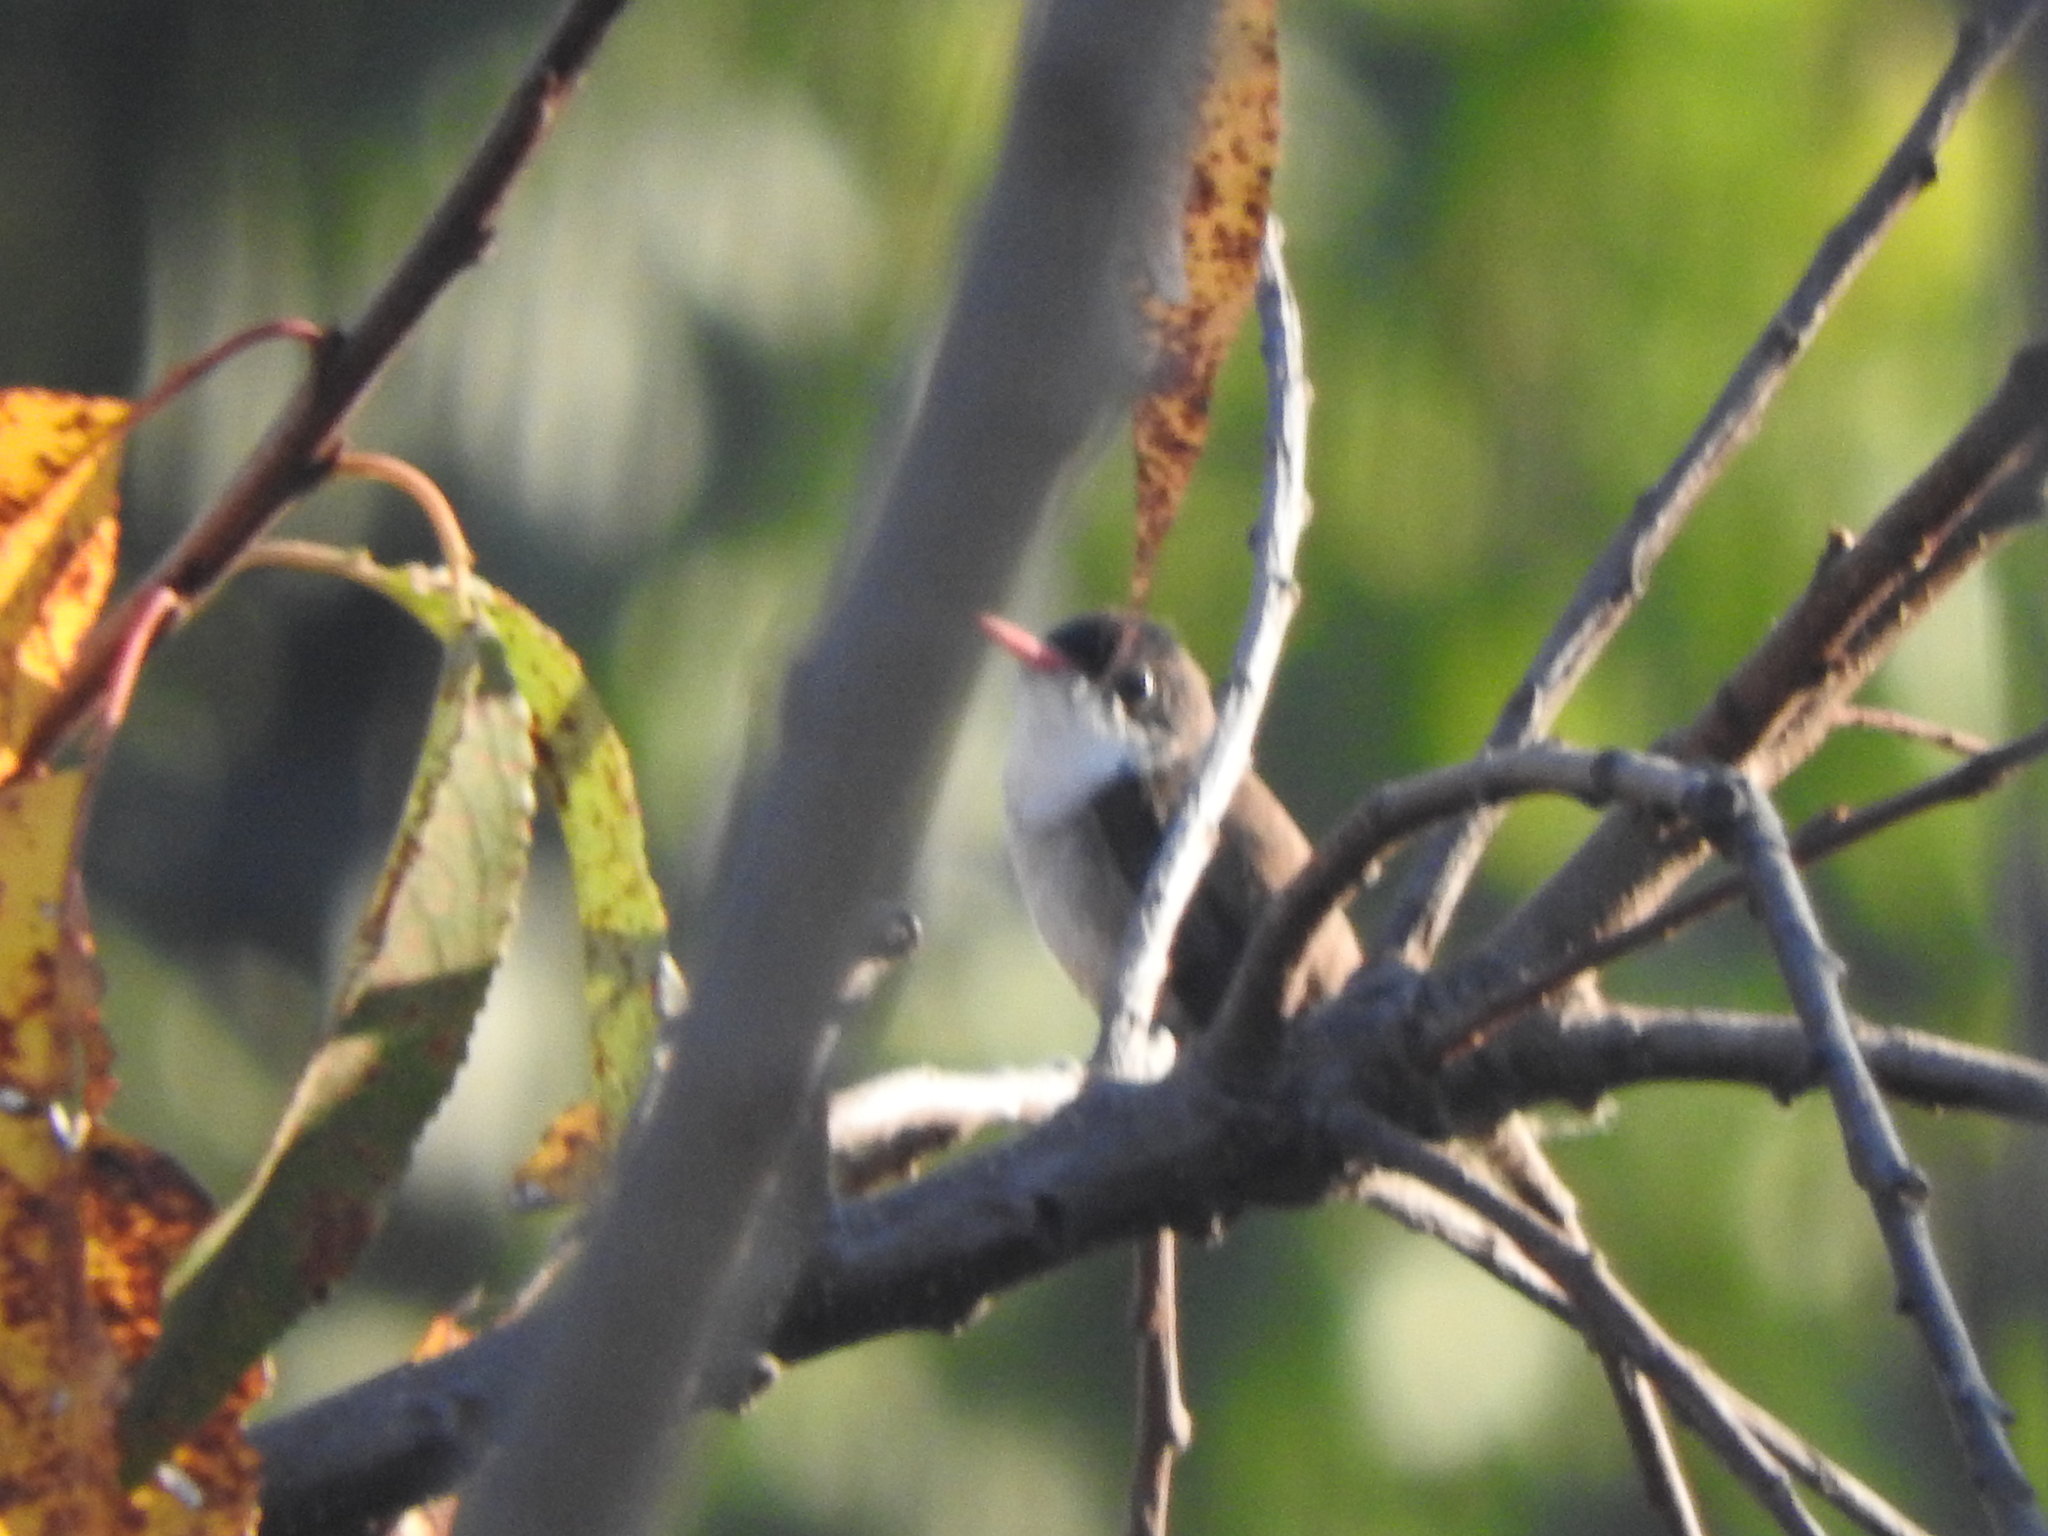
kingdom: Animalia
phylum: Chordata
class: Aves
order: Apodiformes
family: Trochilidae
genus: Leucolia
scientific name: Leucolia violiceps
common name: Violet-crowned hummingbird
